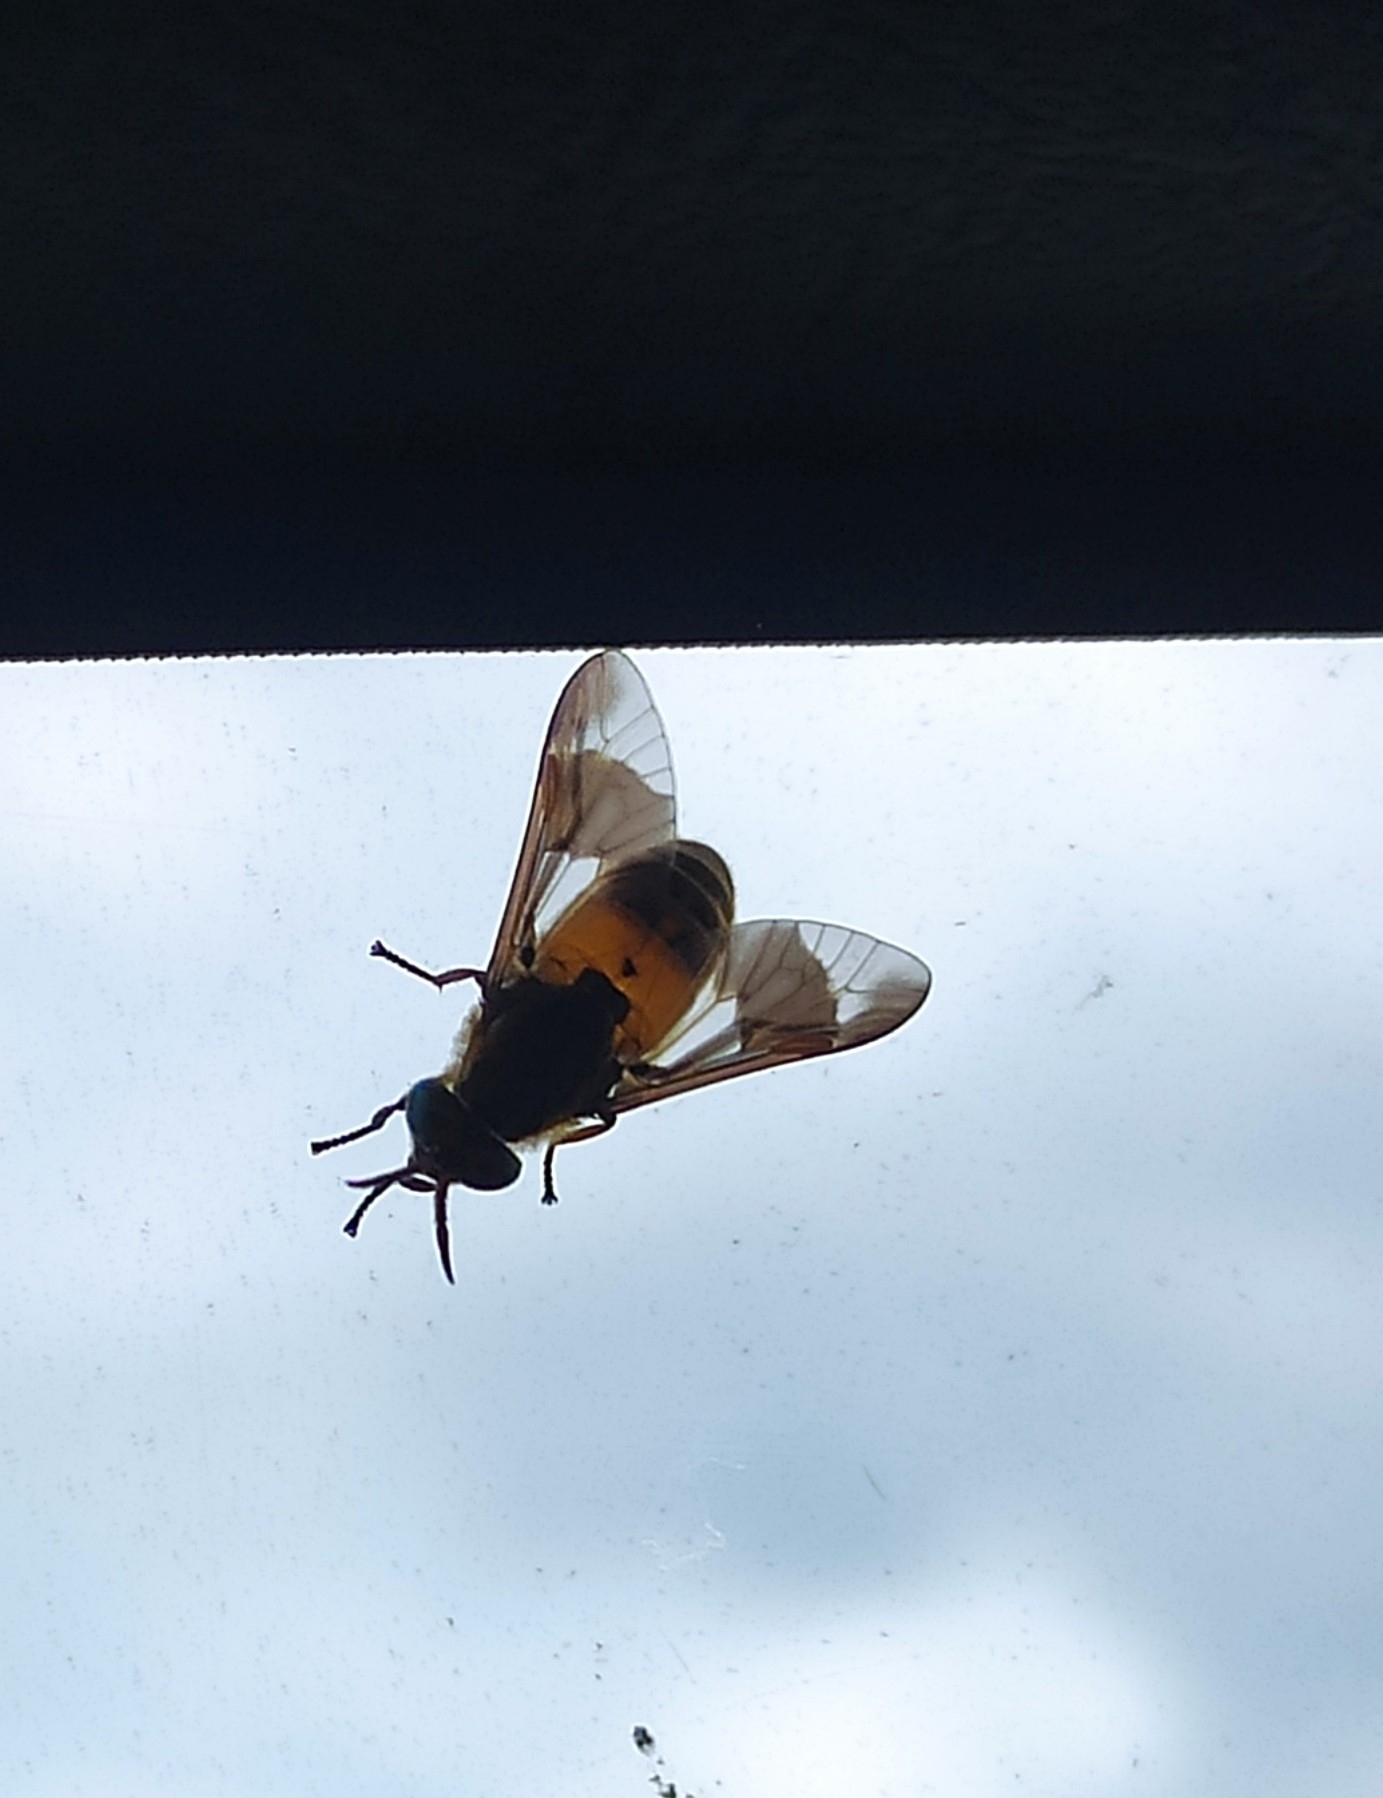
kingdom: Animalia
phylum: Arthropoda
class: Insecta
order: Diptera
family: Tabanidae
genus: Chrysops
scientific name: Chrysops viduatus
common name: Square-spot deerfly
